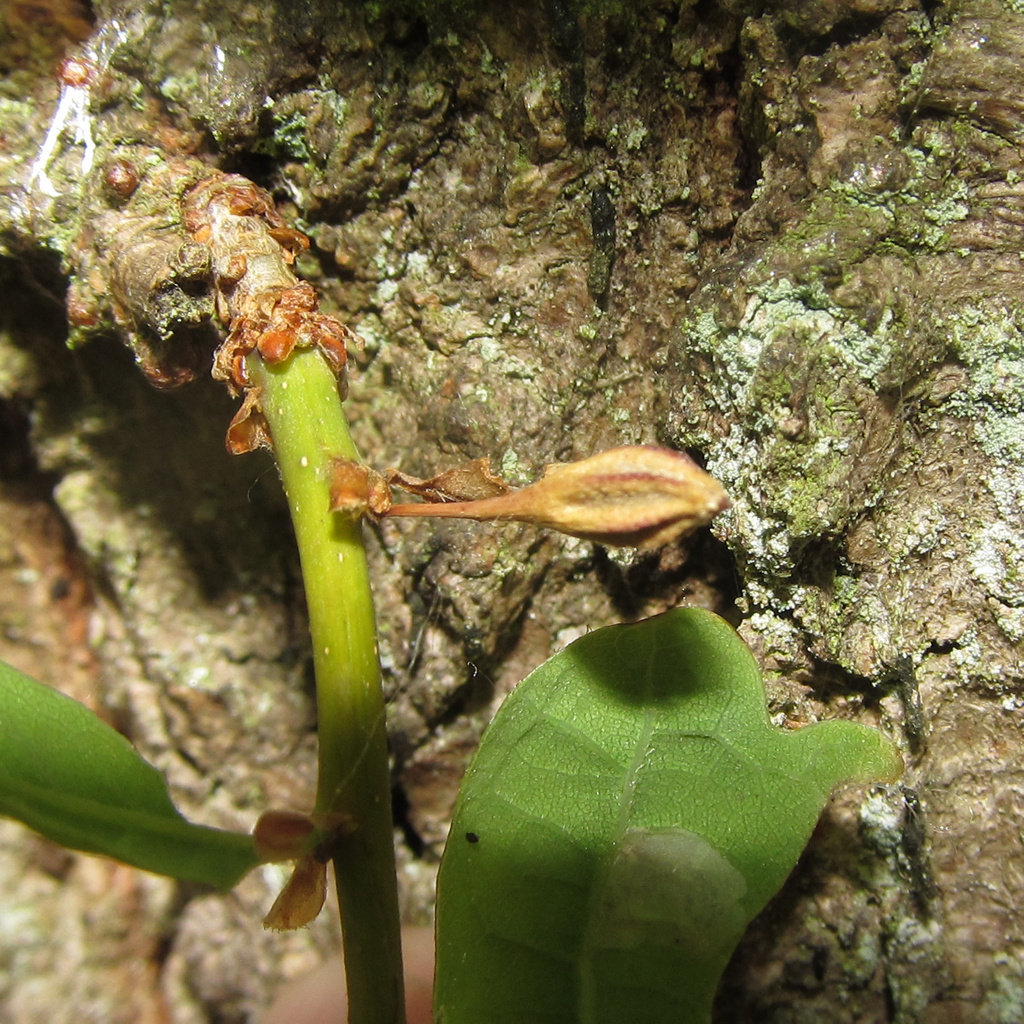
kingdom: Animalia
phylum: Arthropoda
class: Insecta
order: Hymenoptera
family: Cynipidae
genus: Andricus
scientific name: Andricus callidoma
